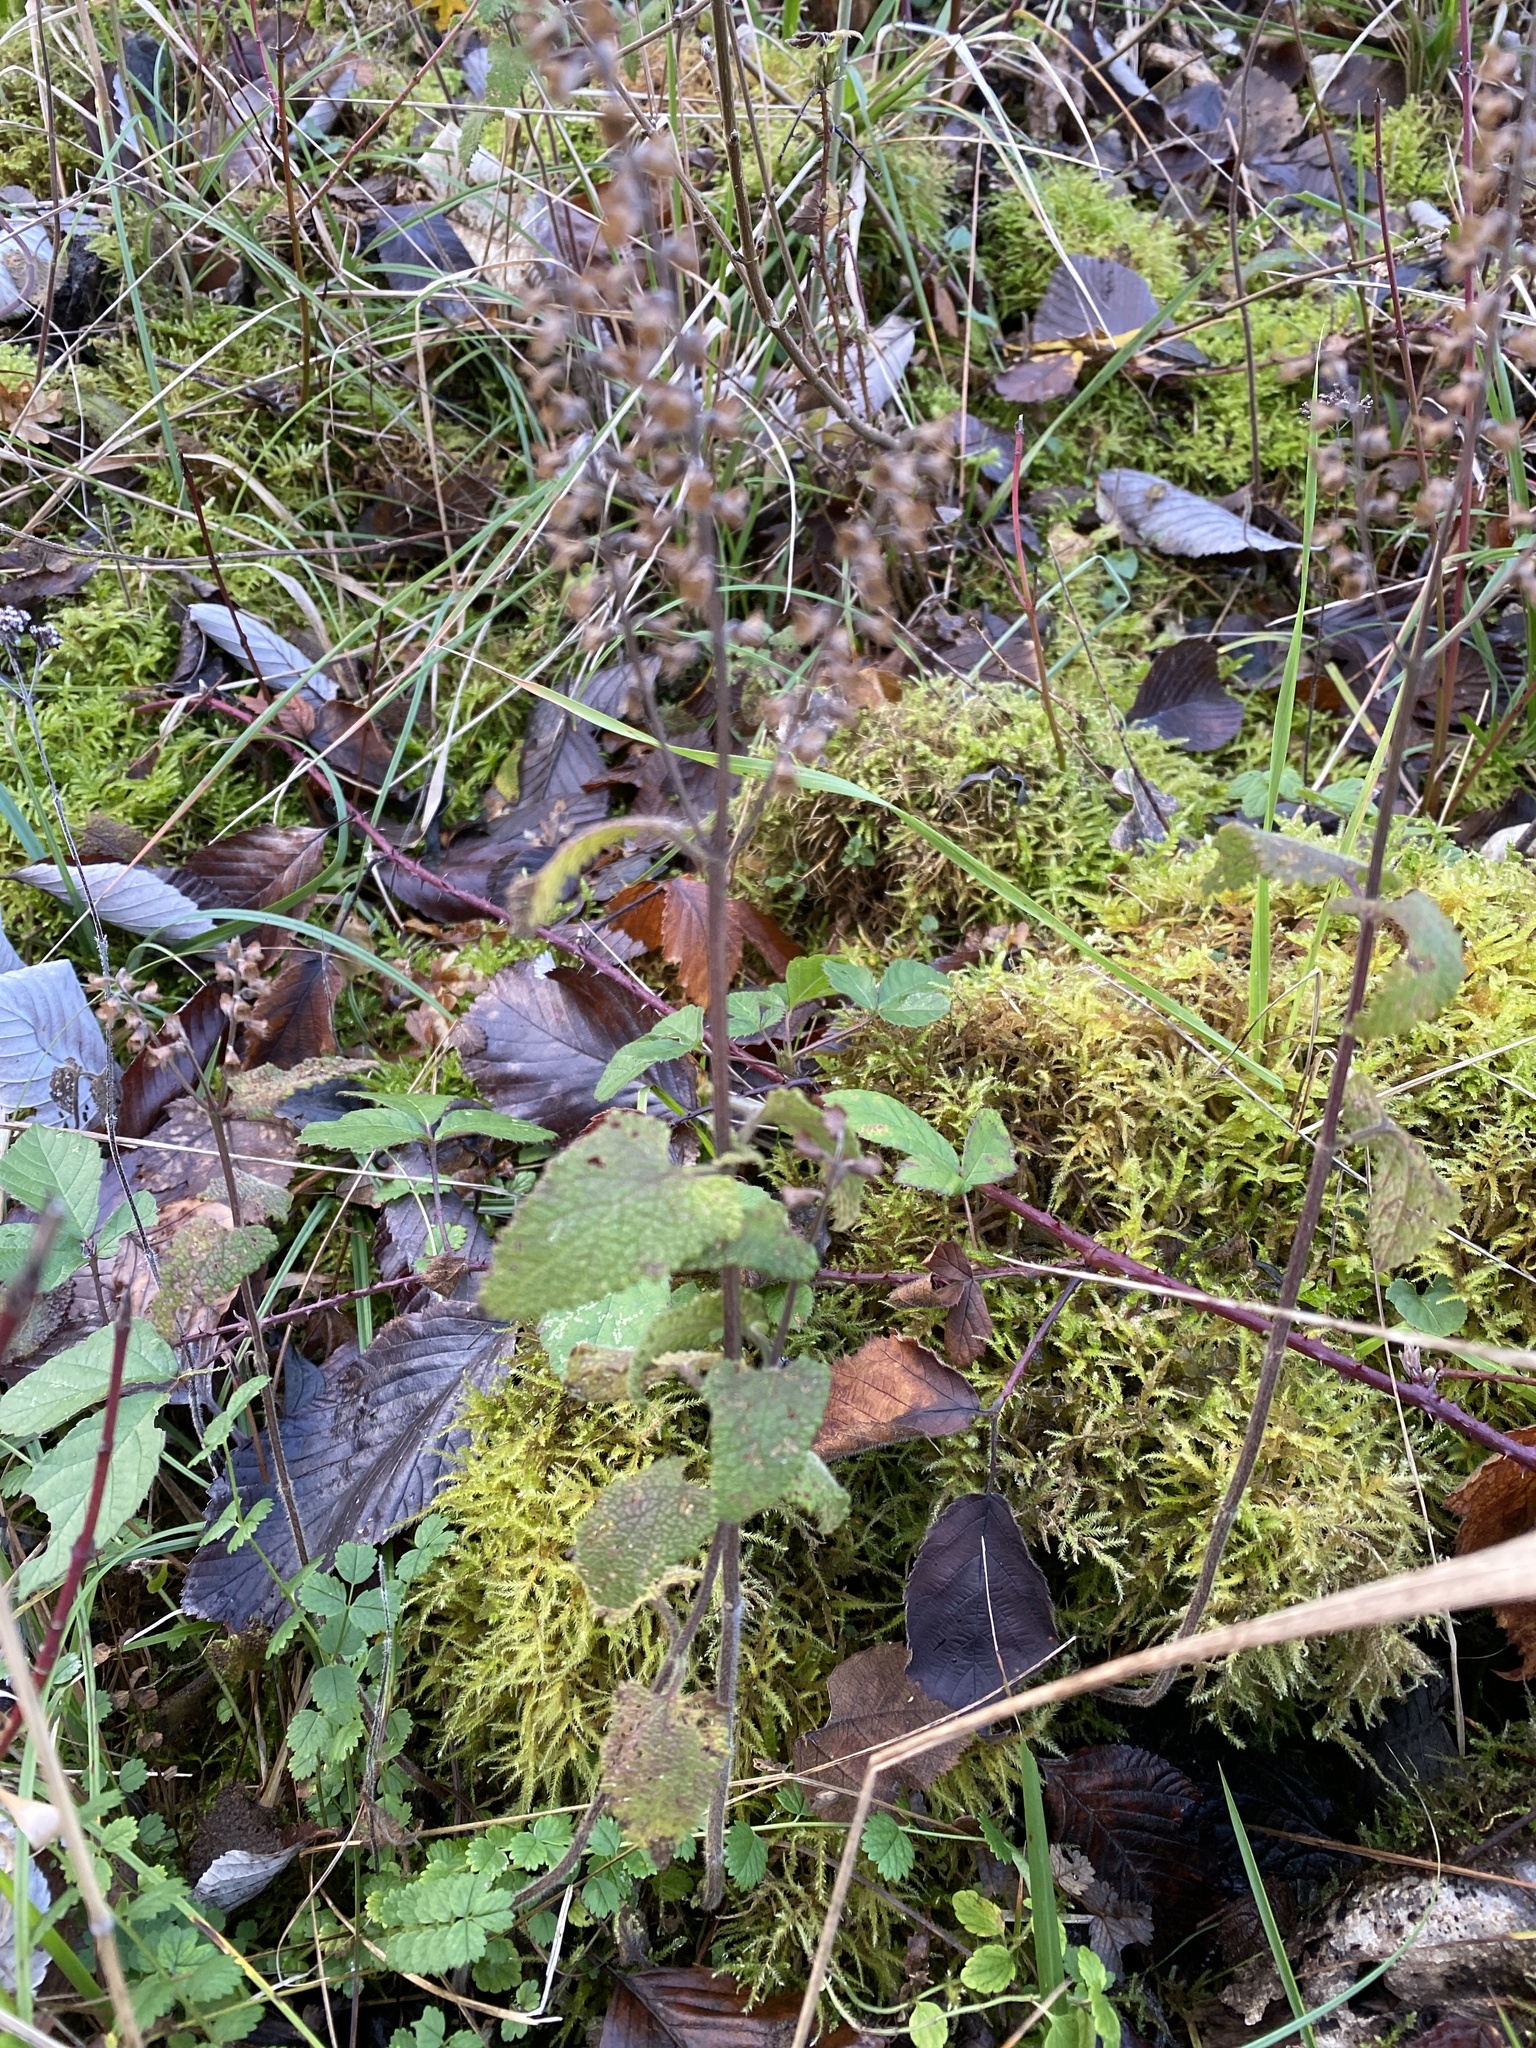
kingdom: Plantae
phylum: Tracheophyta
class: Magnoliopsida
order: Lamiales
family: Lamiaceae
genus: Teucrium
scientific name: Teucrium scorodonia
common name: Woodland germander
